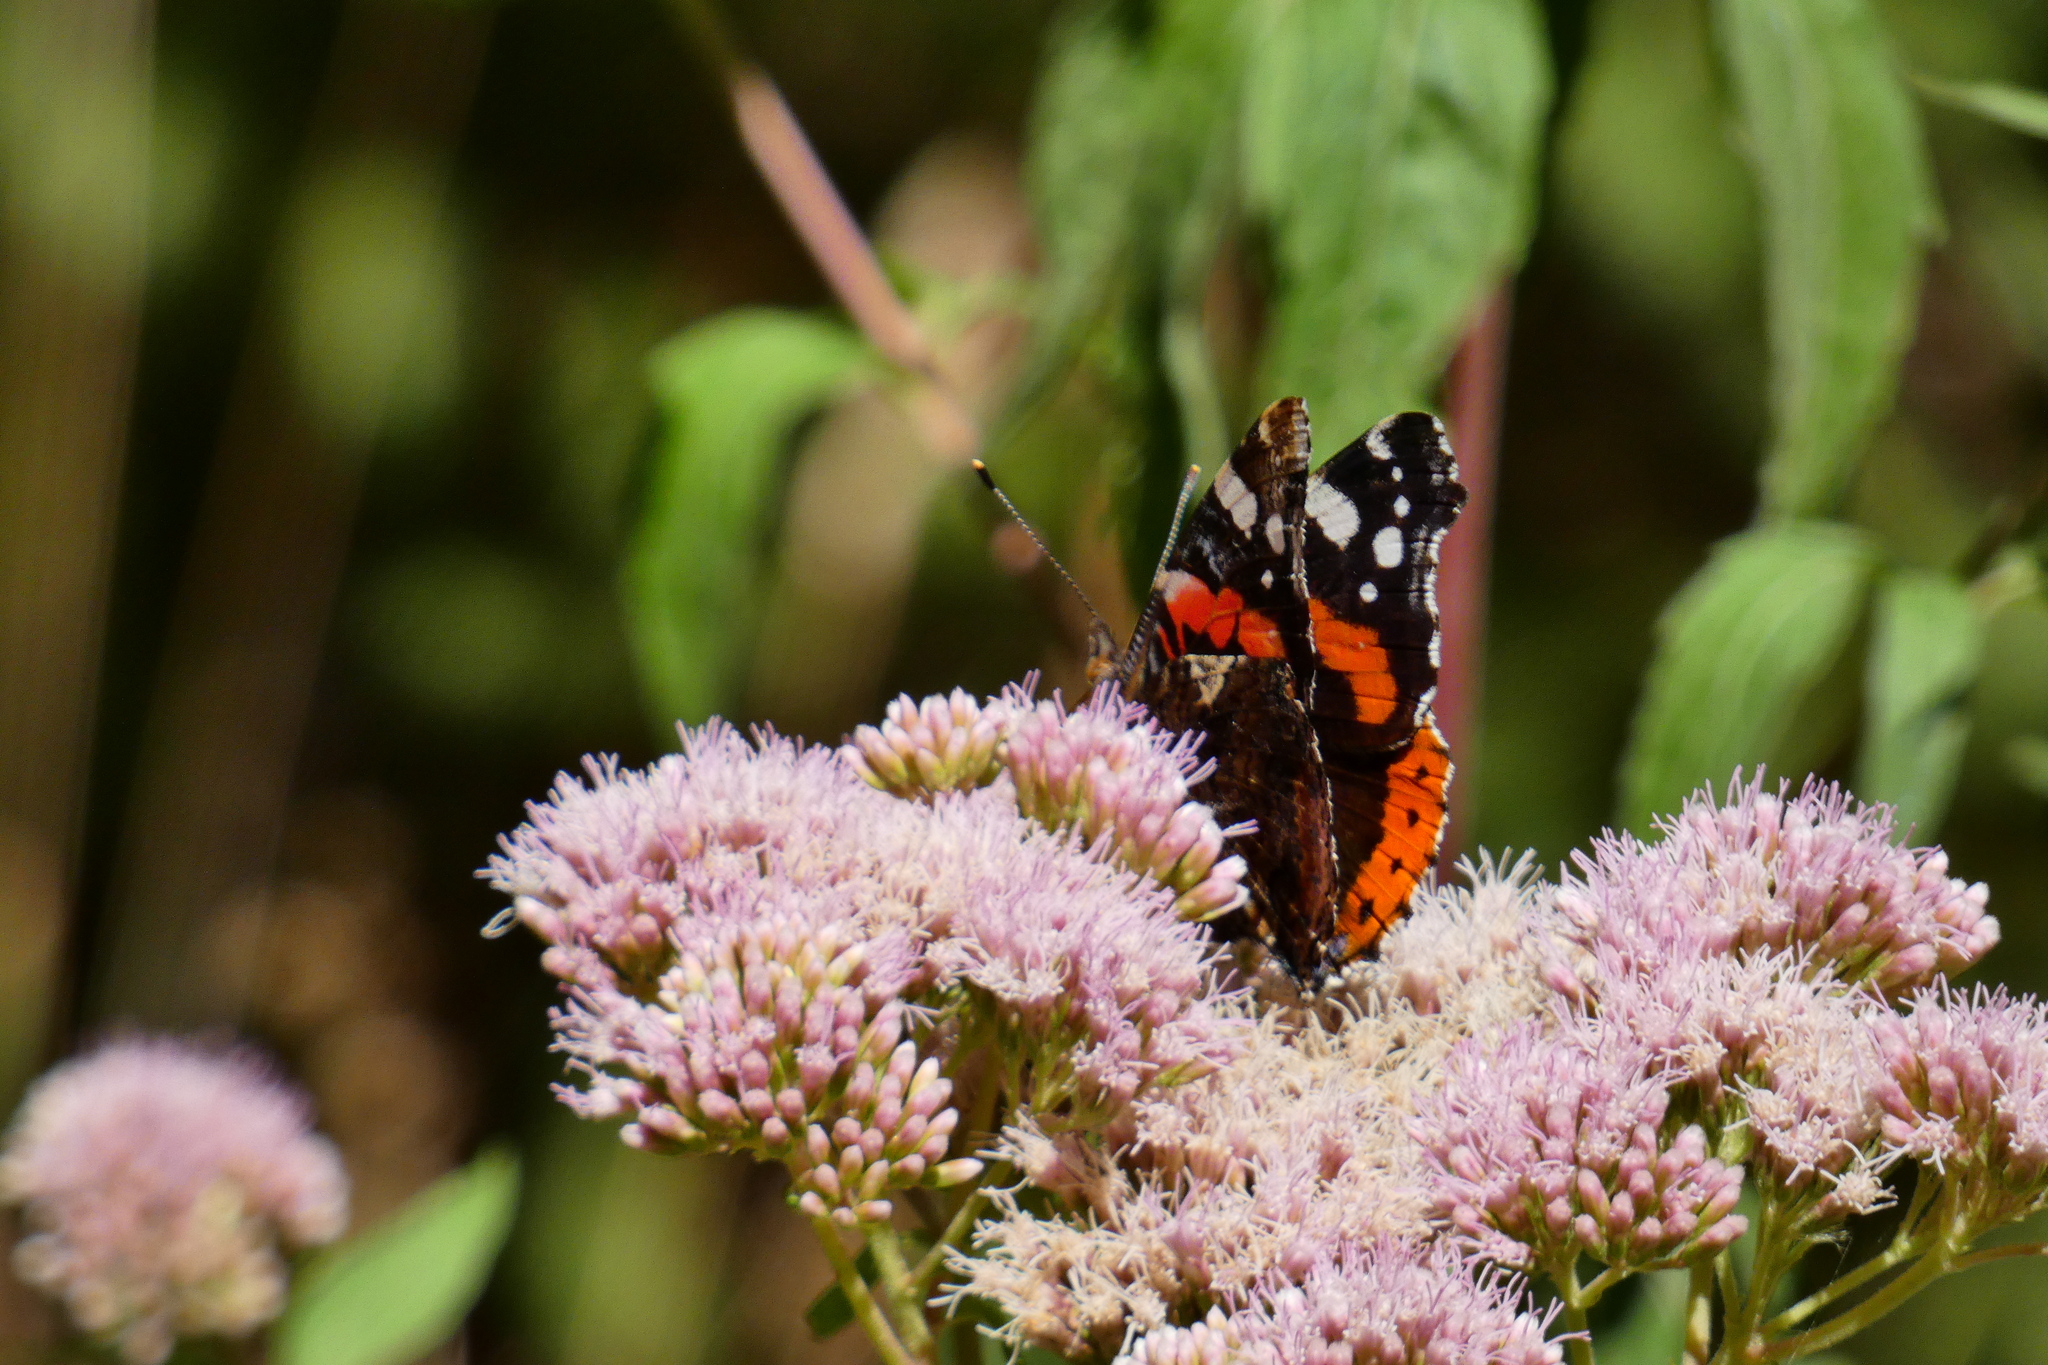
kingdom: Animalia
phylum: Arthropoda
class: Insecta
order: Lepidoptera
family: Nymphalidae
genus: Vanessa
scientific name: Vanessa atalanta
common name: Red admiral
